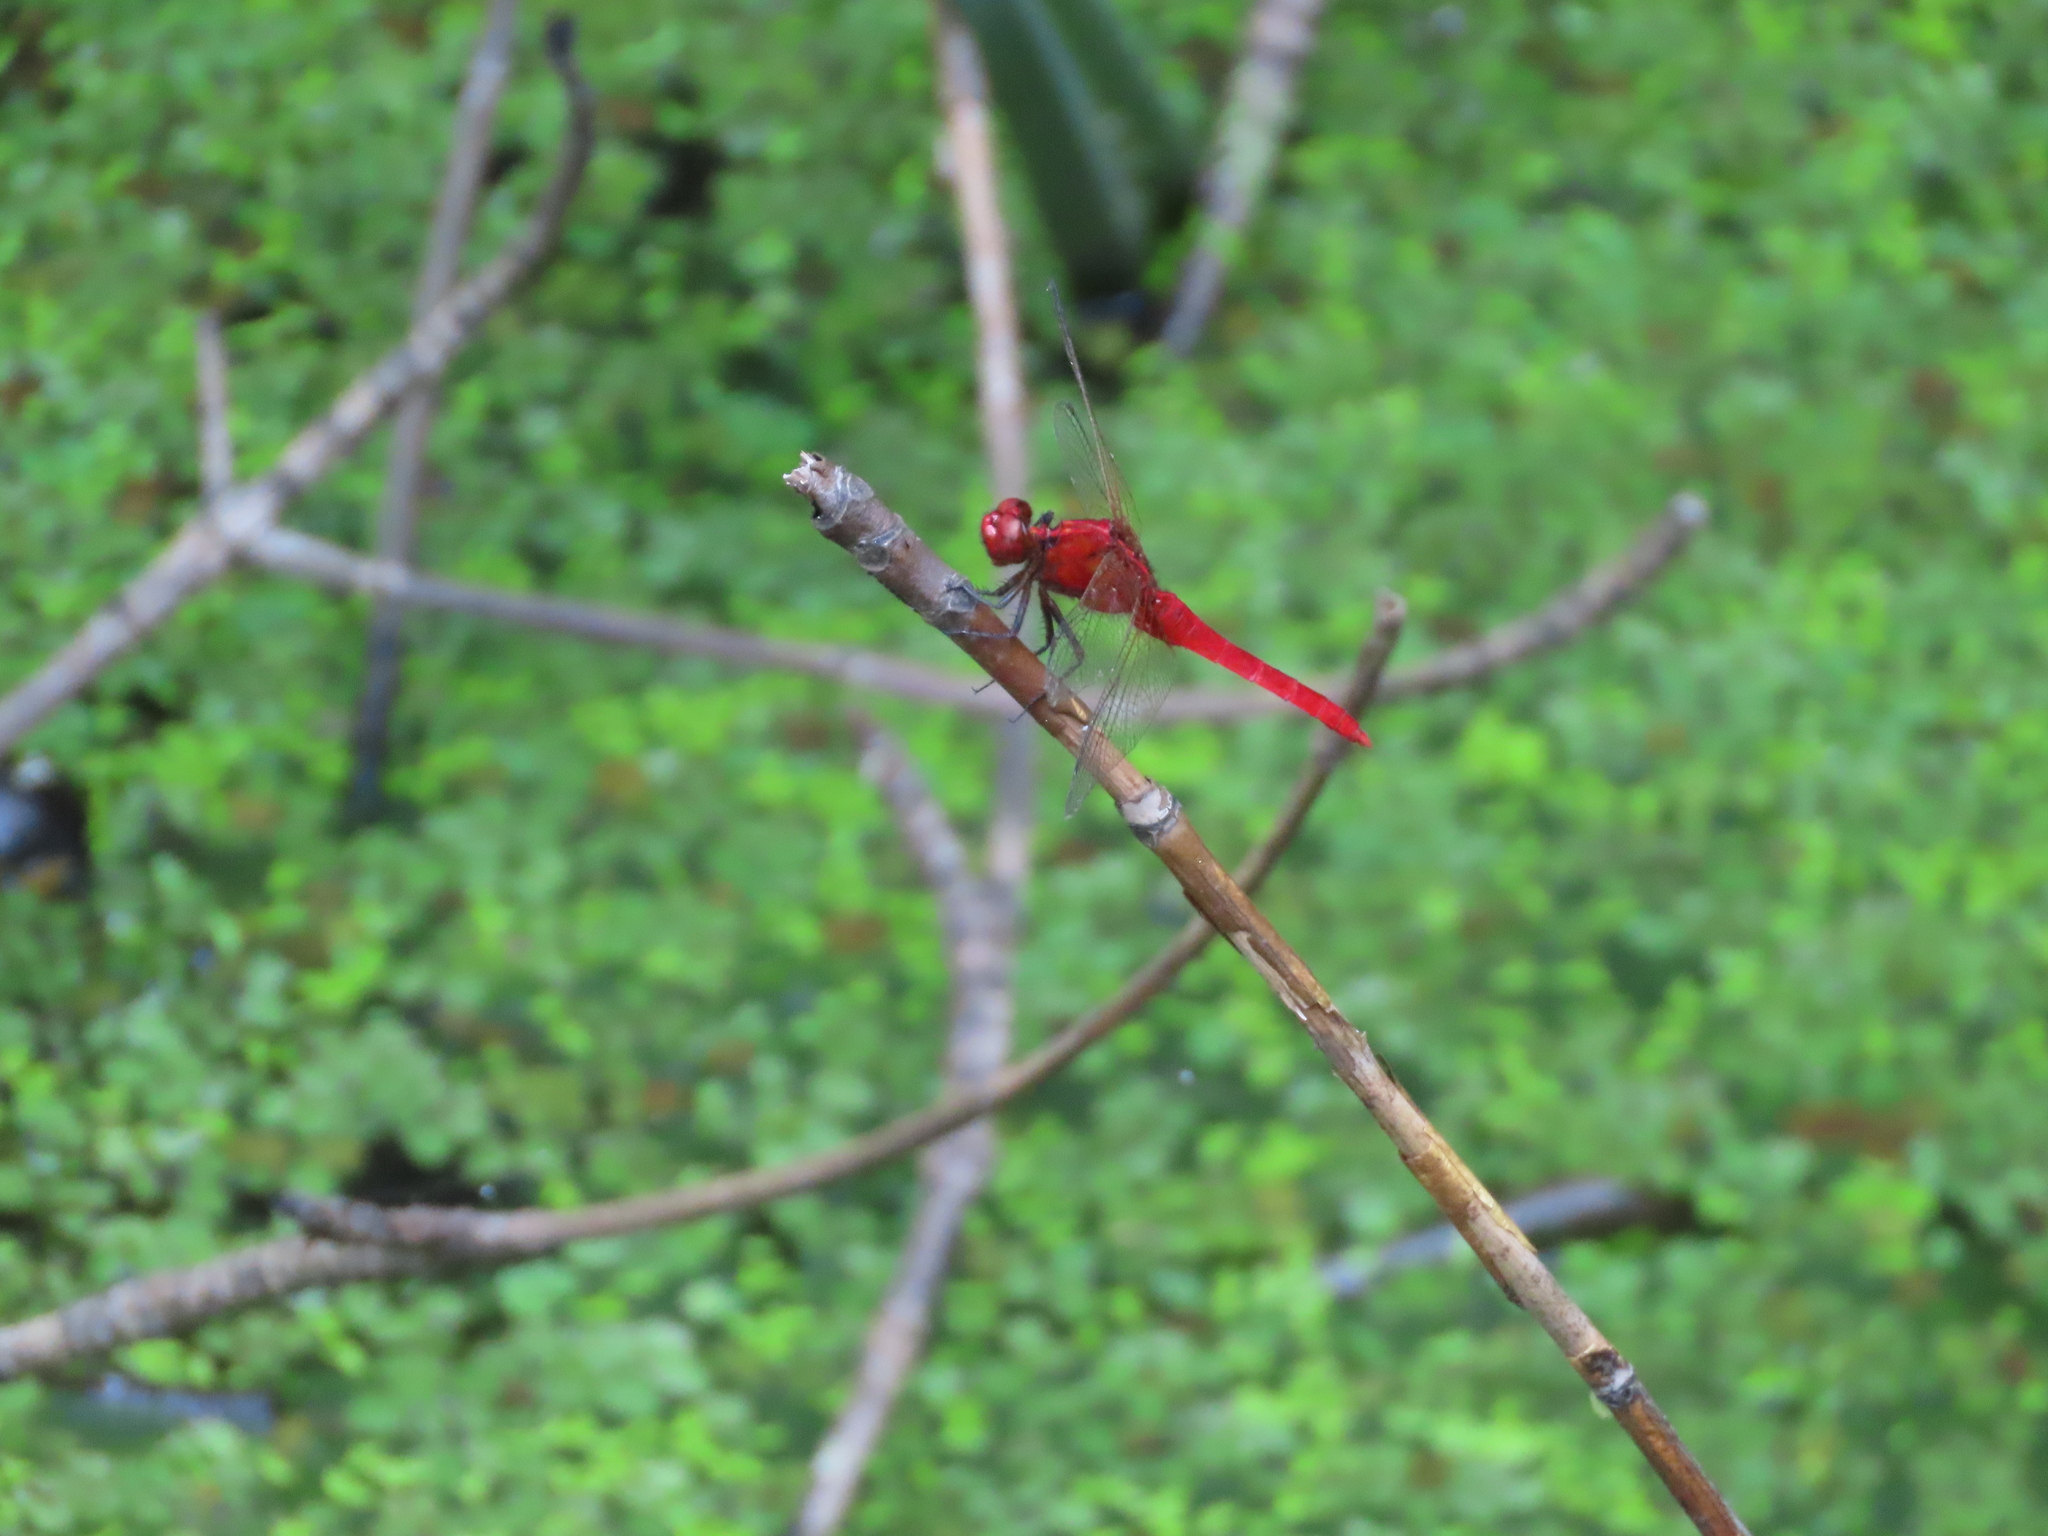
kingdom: Animalia
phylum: Arthropoda
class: Insecta
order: Odonata
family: Libellulidae
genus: Rhodothemis
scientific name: Rhodothemis rufa
